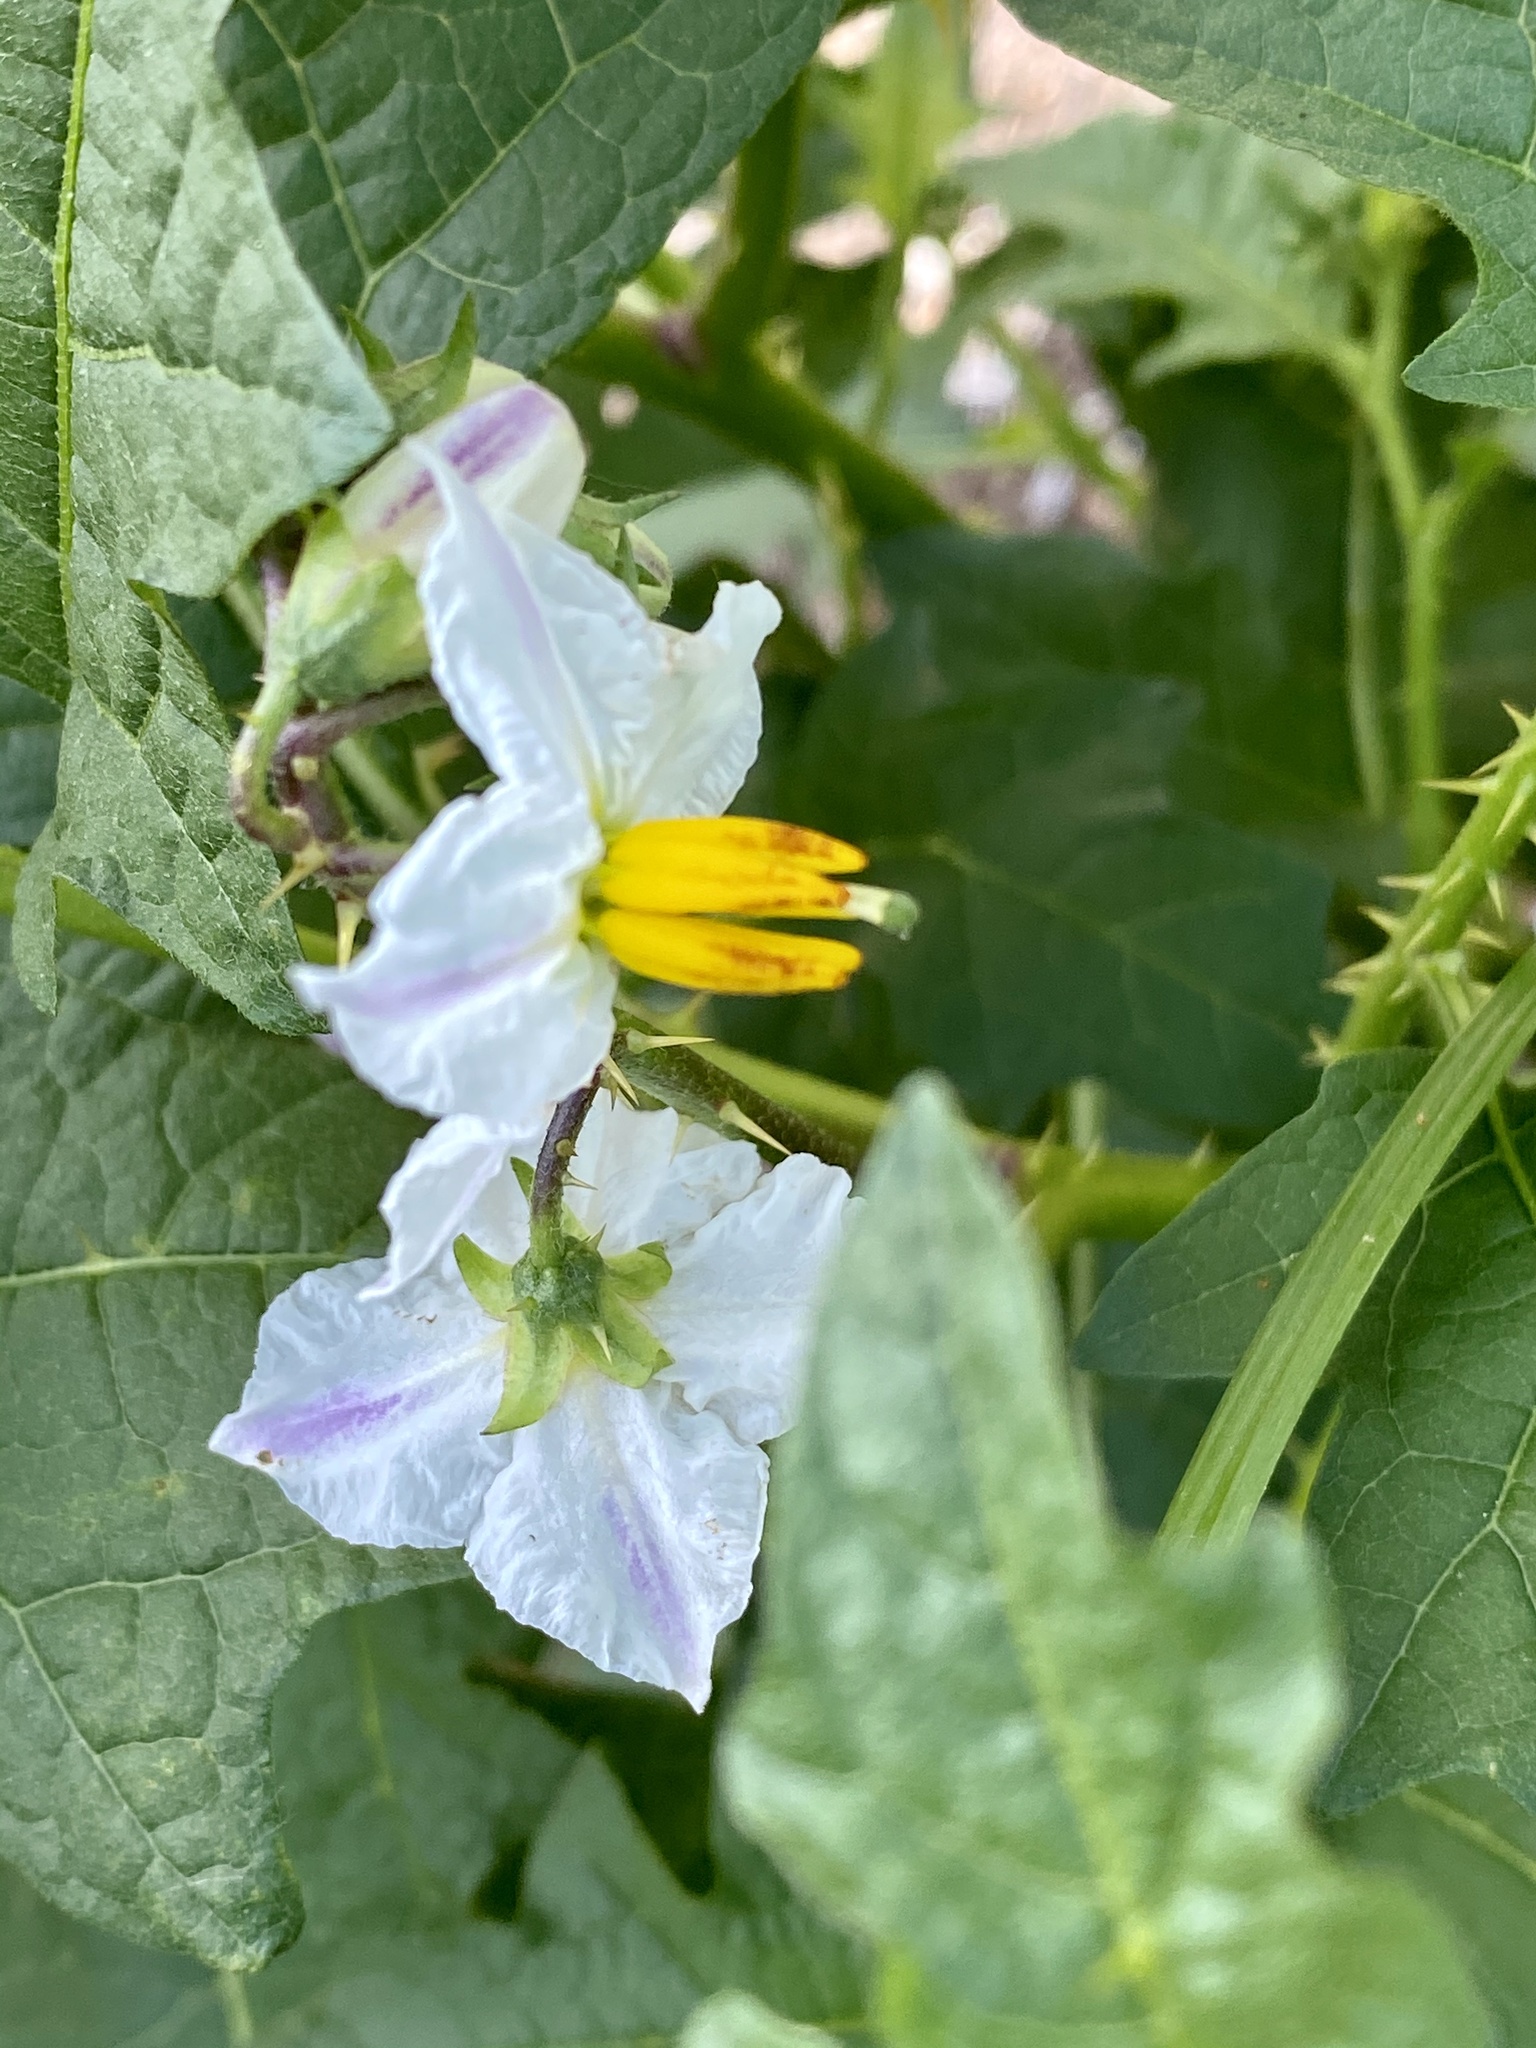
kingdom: Plantae
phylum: Tracheophyta
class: Magnoliopsida
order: Solanales
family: Solanaceae
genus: Solanum
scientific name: Solanum carolinense
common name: Horse-nettle
